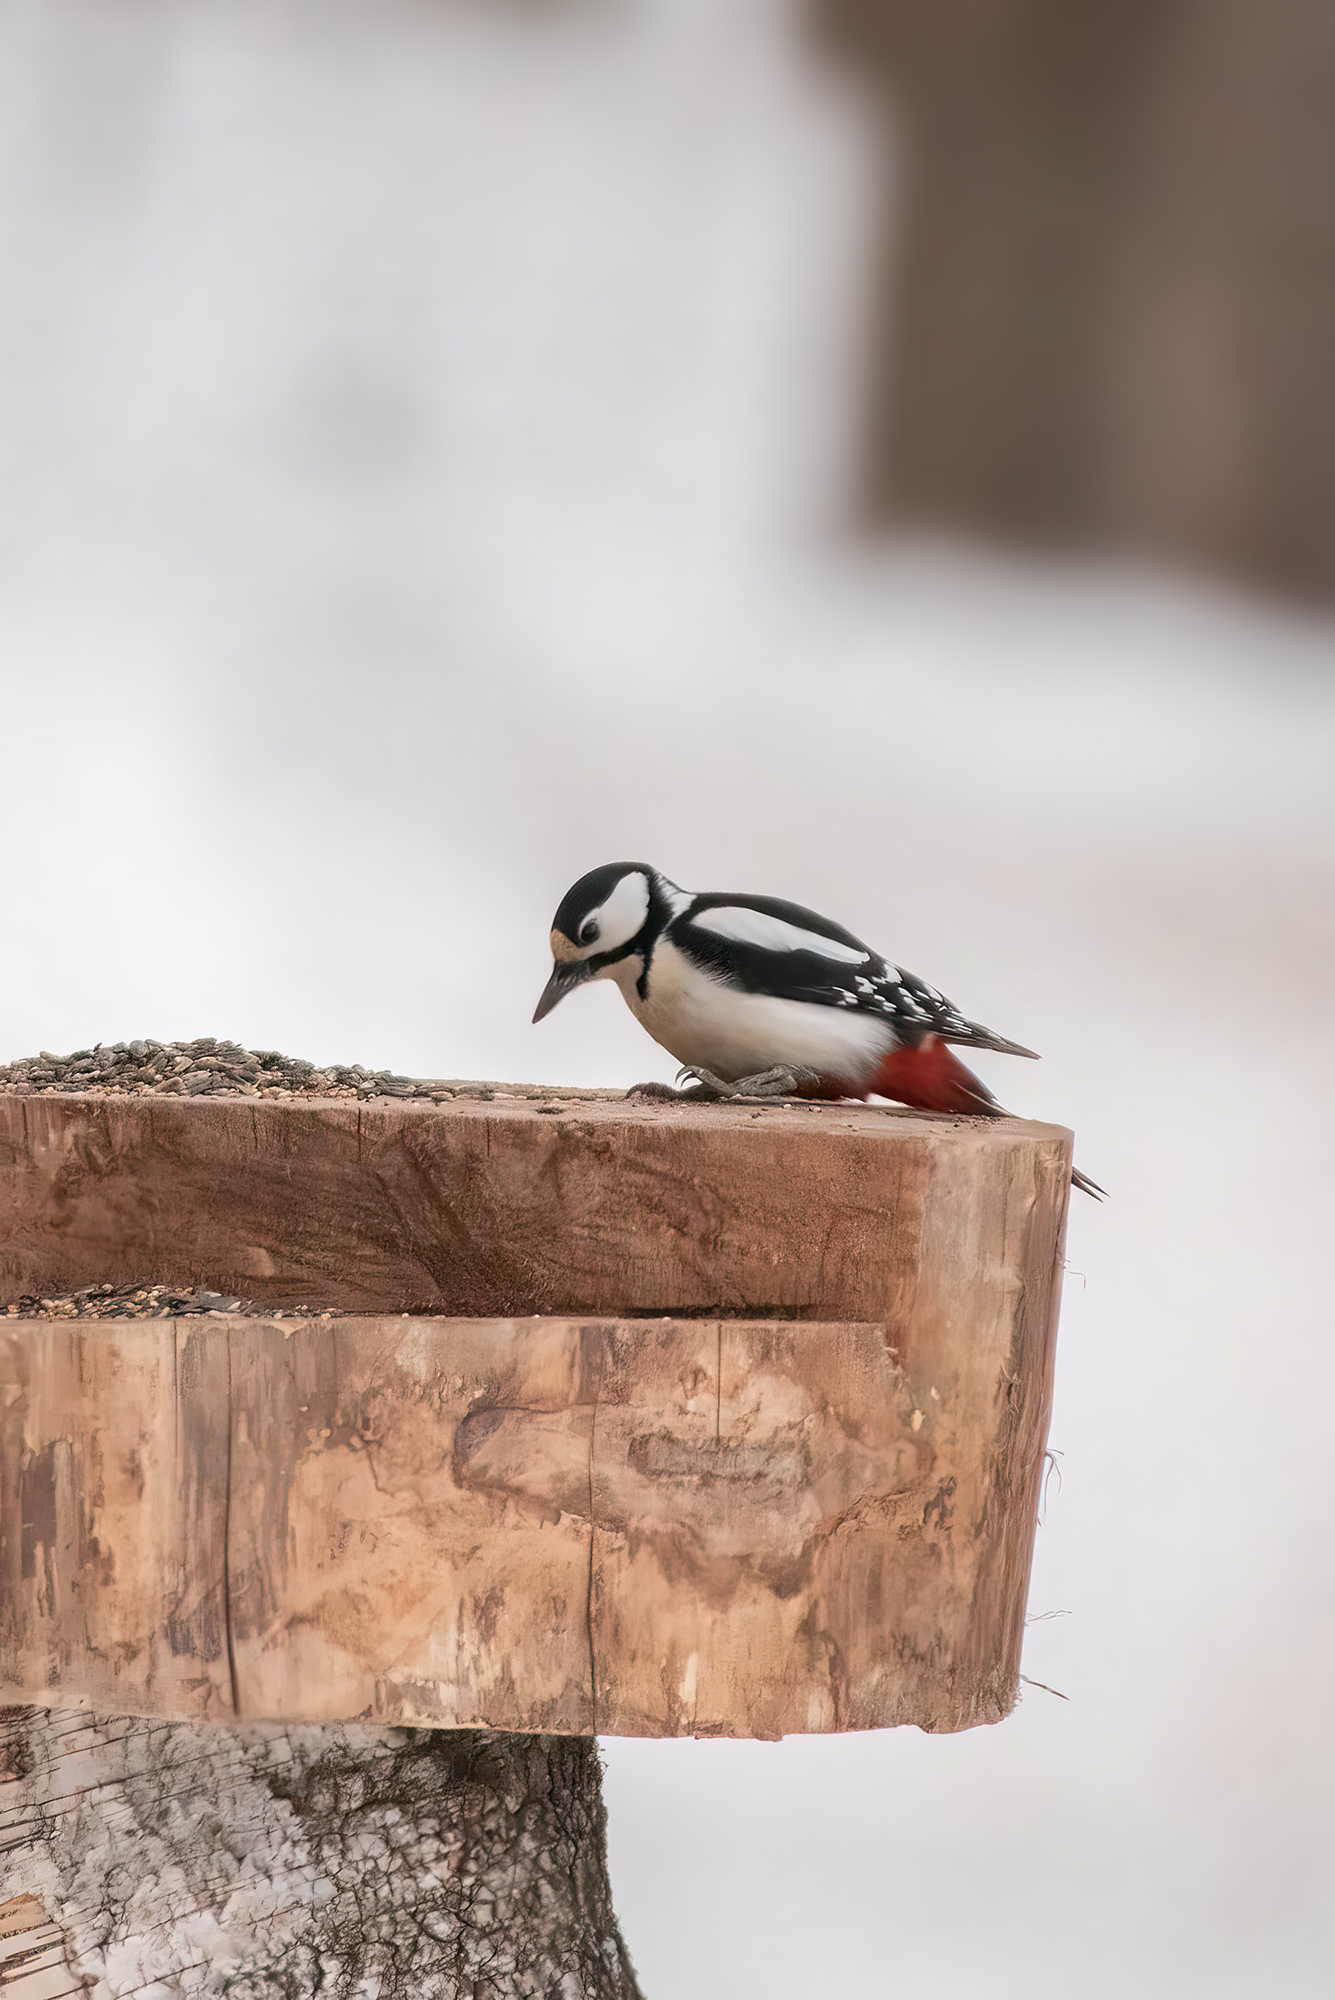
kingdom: Animalia
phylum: Chordata
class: Aves
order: Piciformes
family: Picidae
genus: Dendrocopos
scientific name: Dendrocopos major
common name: Great spotted woodpecker
